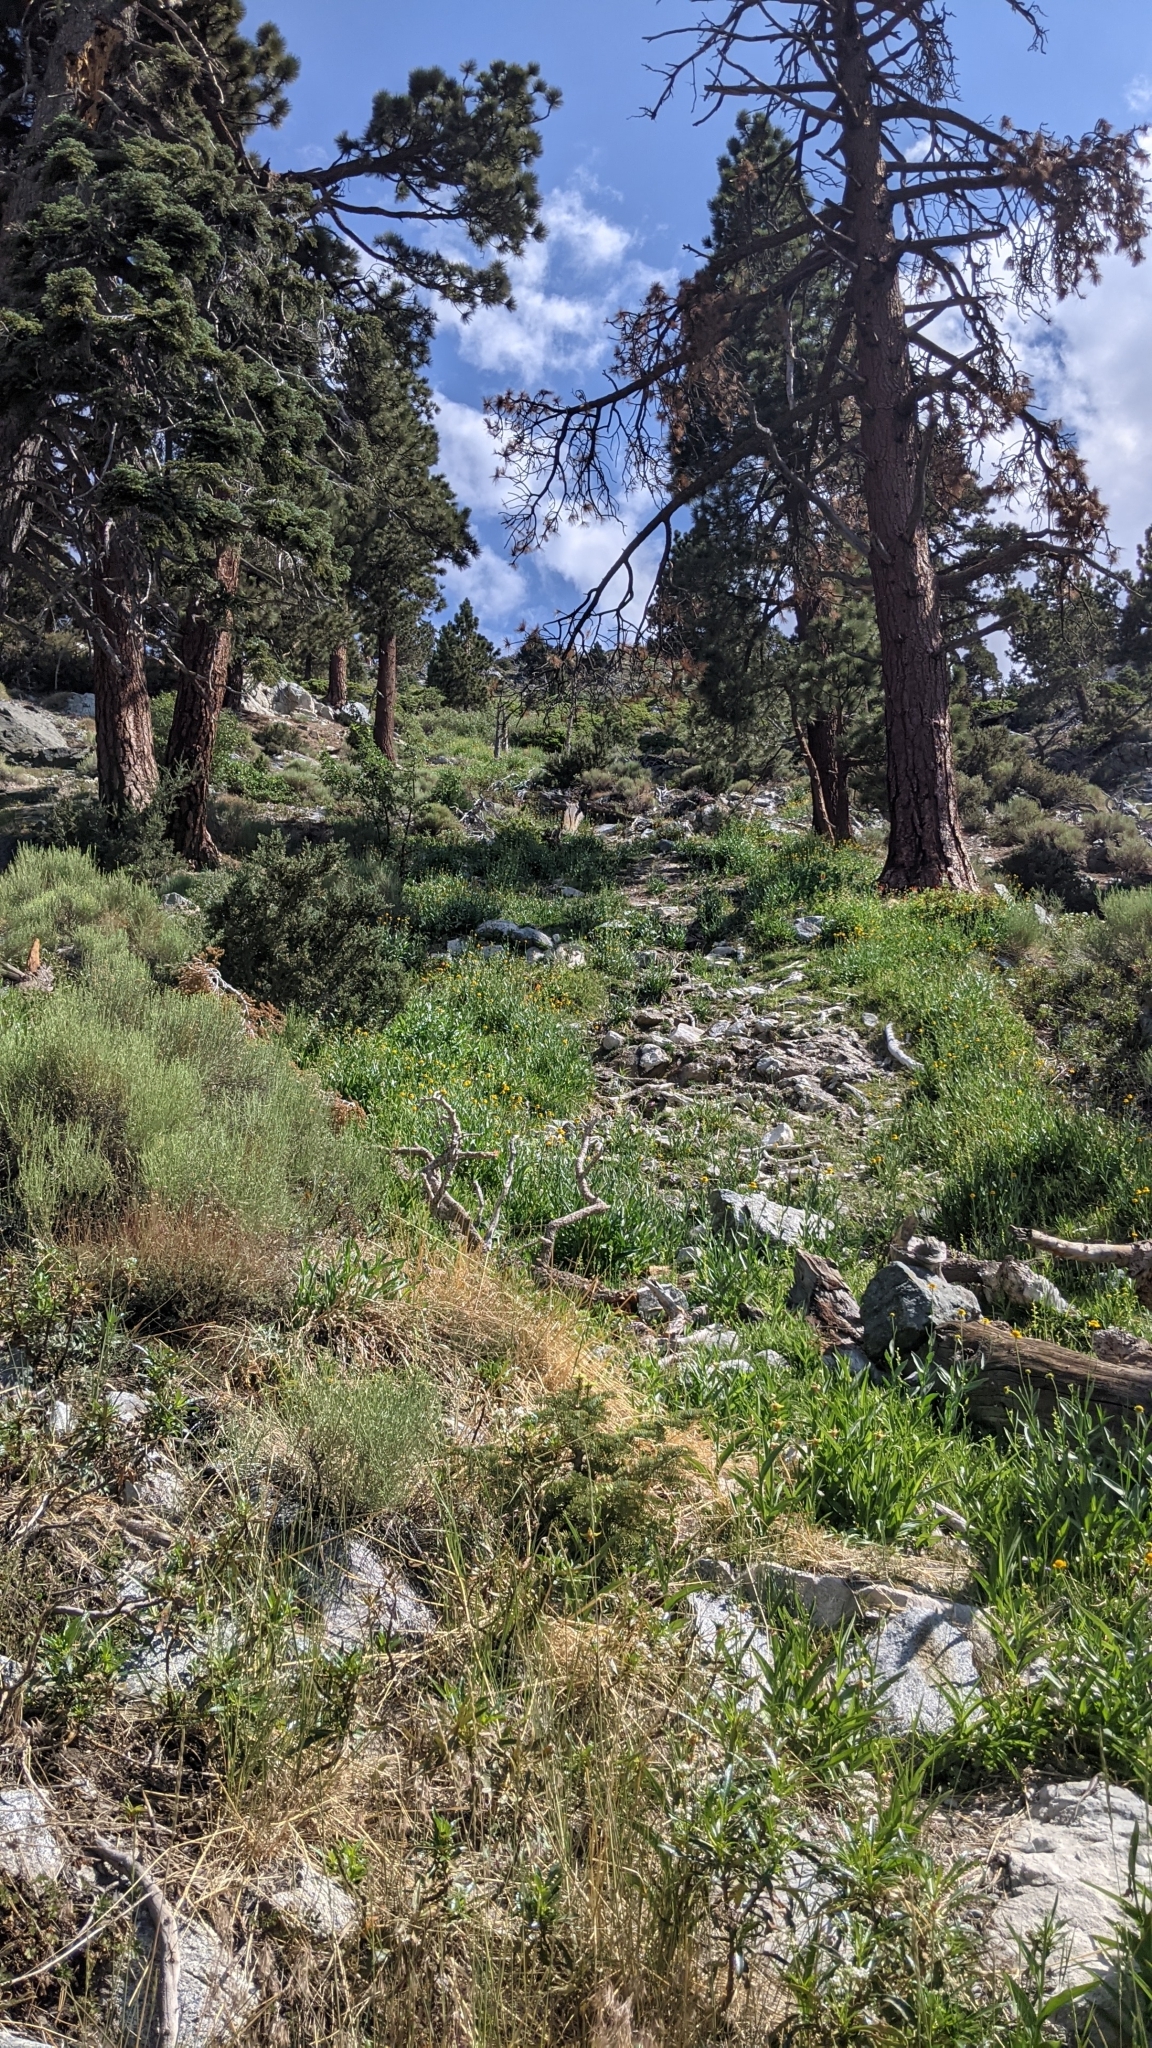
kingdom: Plantae
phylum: Tracheophyta
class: Liliopsida
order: Asparagales
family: Orchidaceae
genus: Epipactis
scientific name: Epipactis gigantea
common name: Chatterbox
